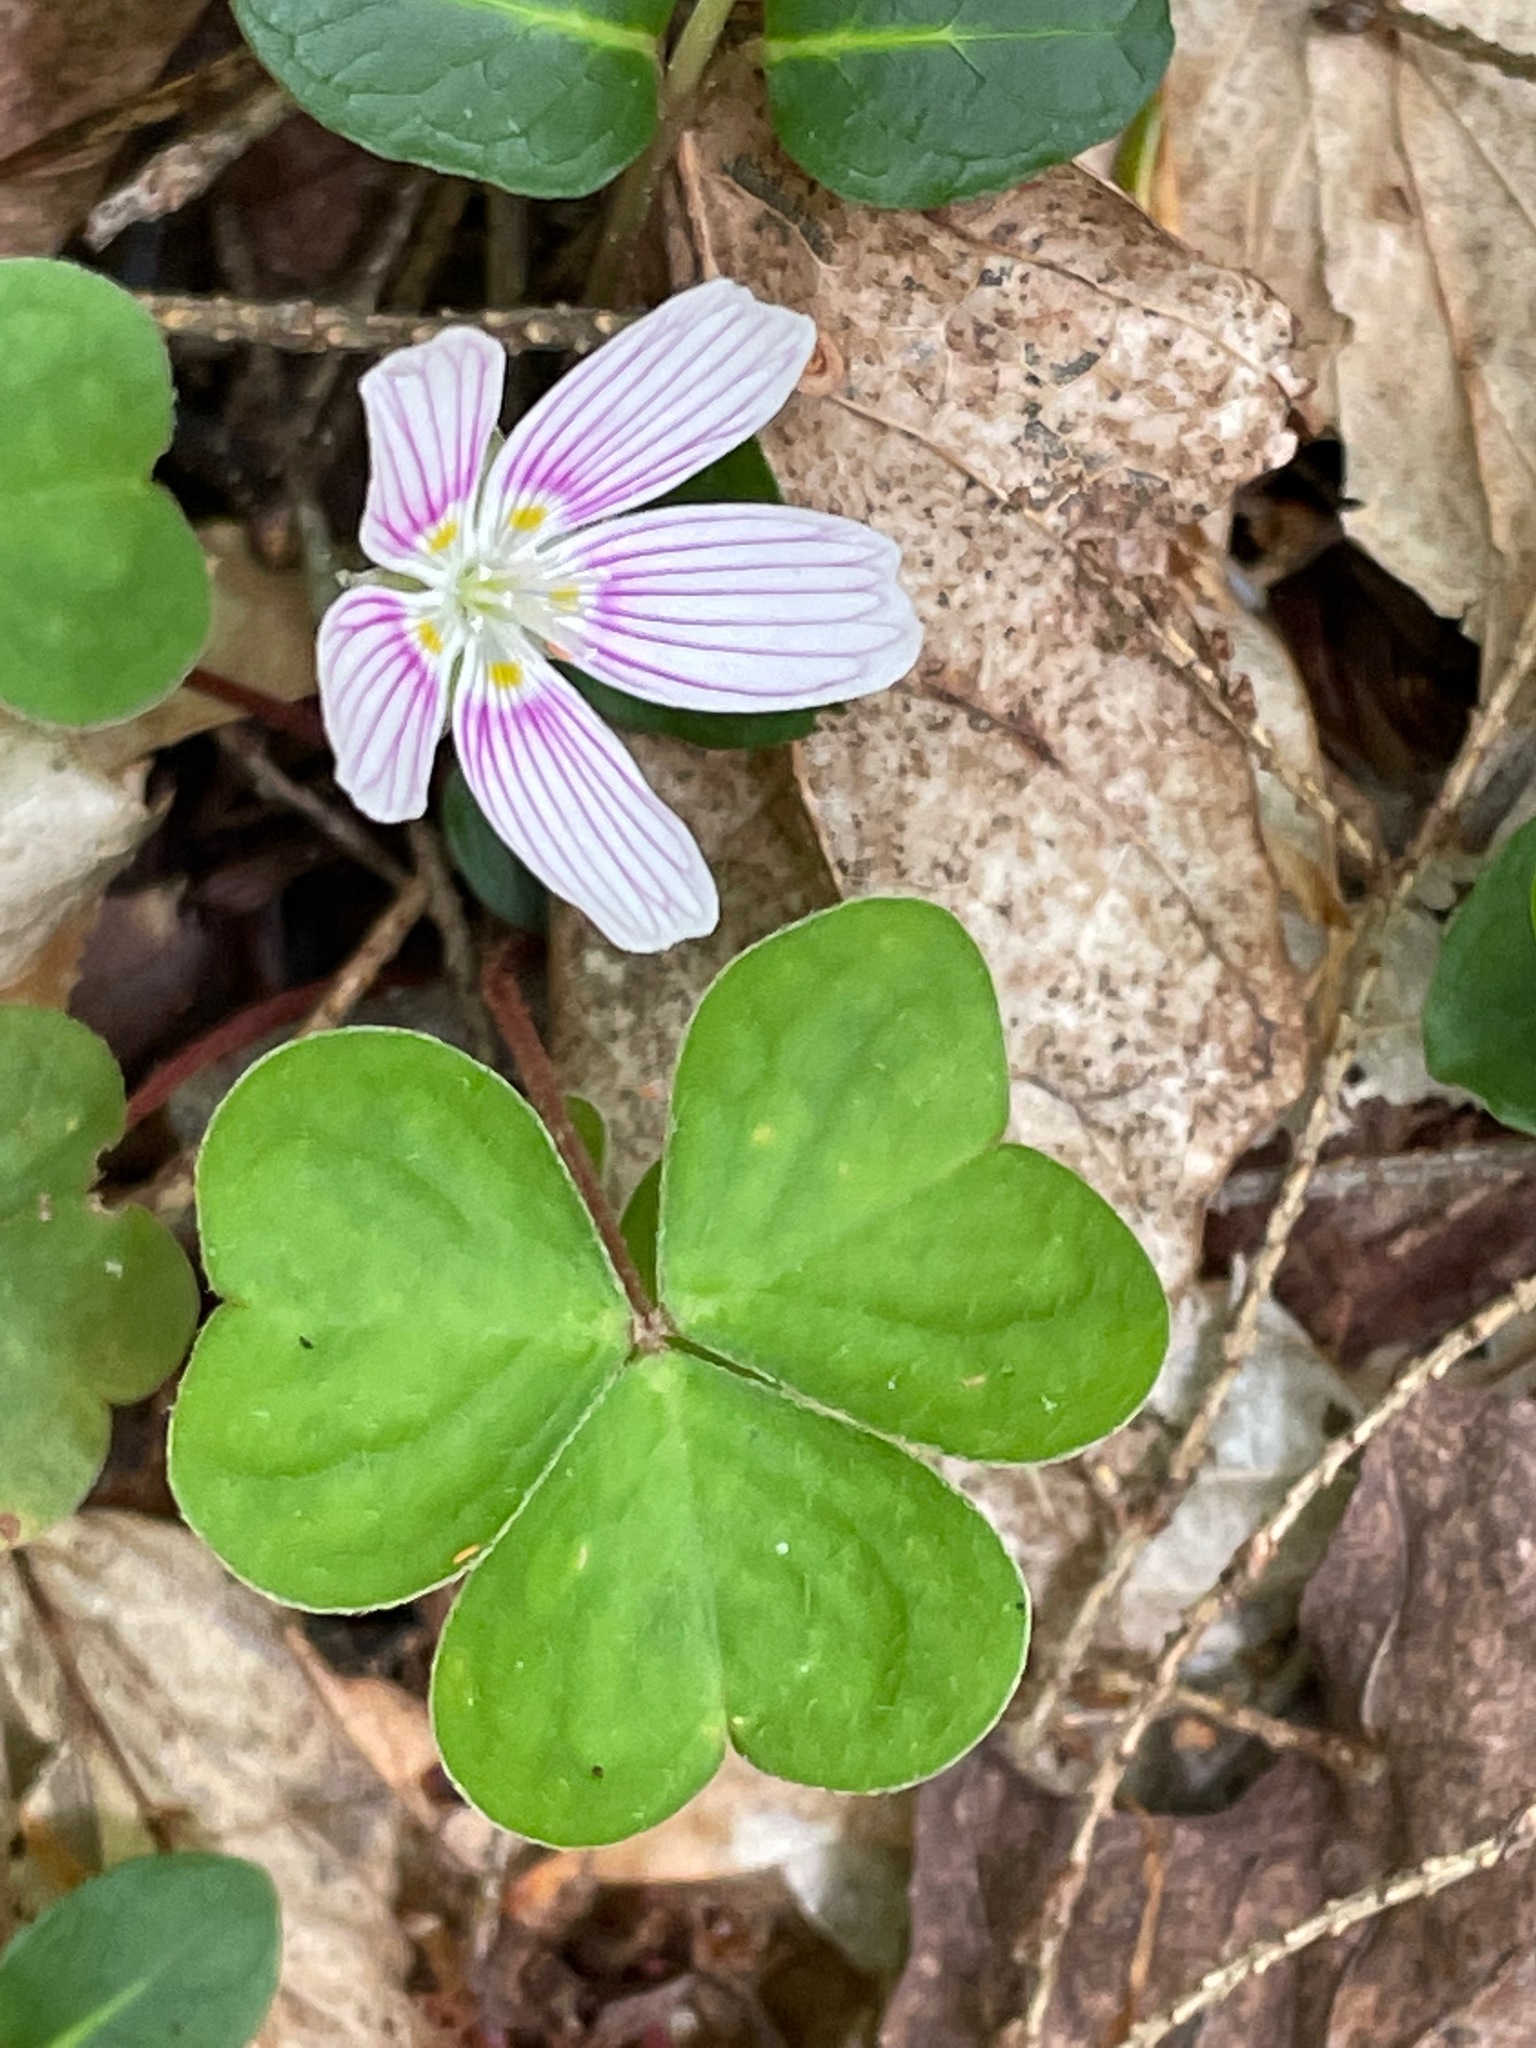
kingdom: Plantae
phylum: Tracheophyta
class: Magnoliopsida
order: Oxalidales
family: Oxalidaceae
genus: Oxalis
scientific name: Oxalis montana
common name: American wood-sorrel
